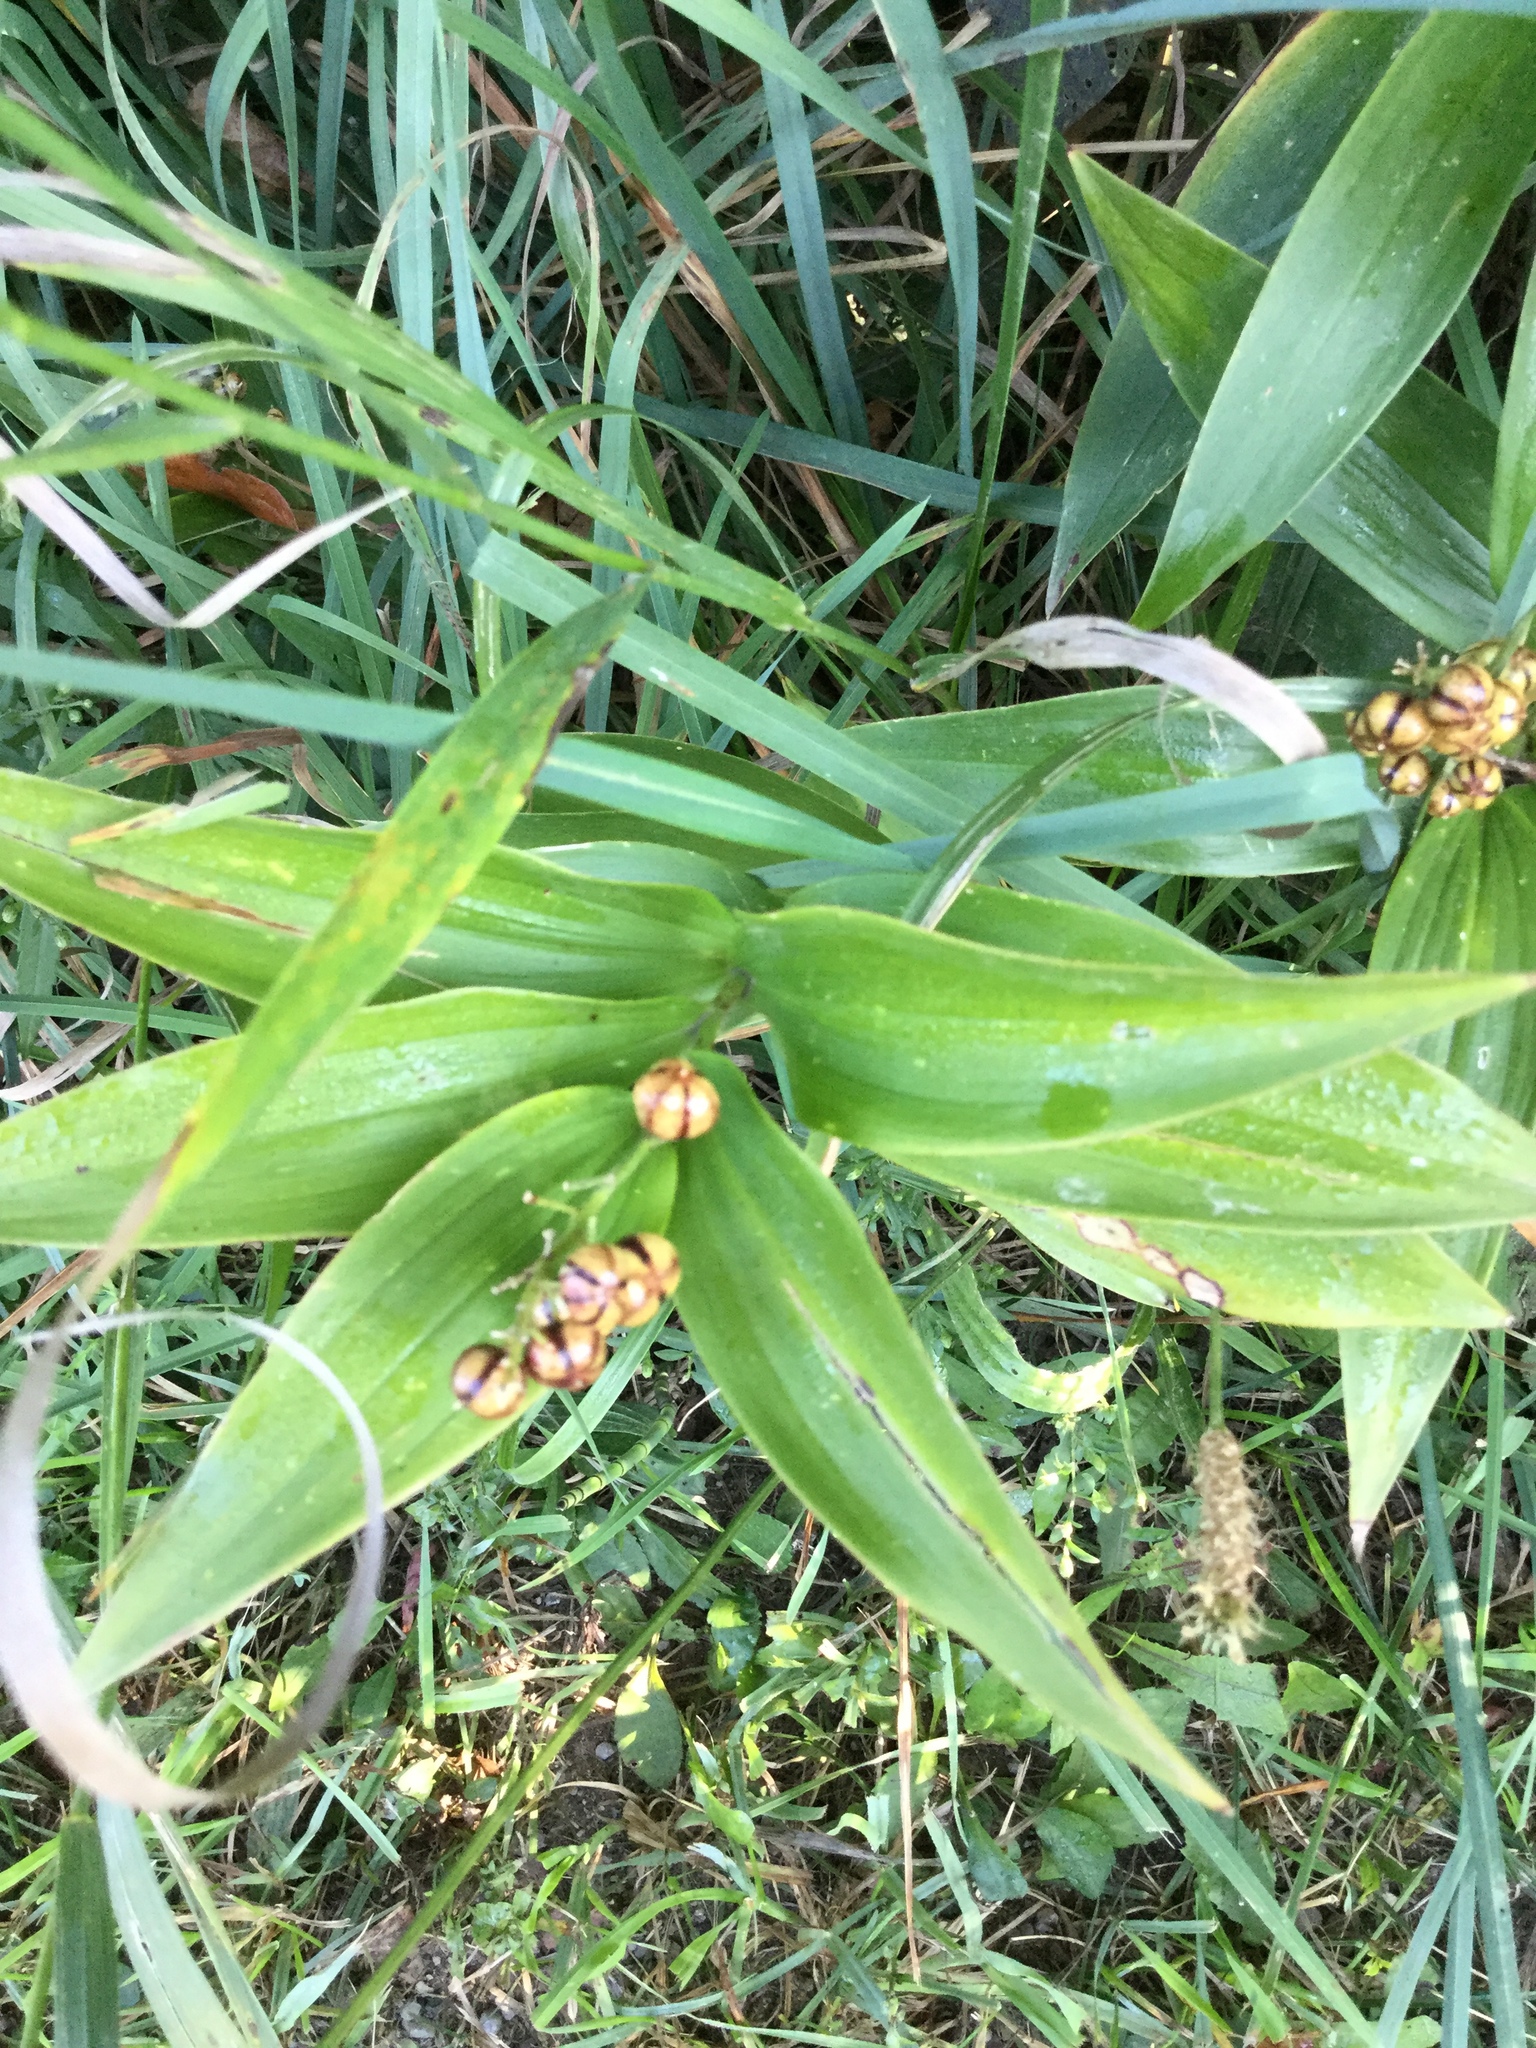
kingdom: Plantae
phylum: Tracheophyta
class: Liliopsida
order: Asparagales
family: Asparagaceae
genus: Maianthemum
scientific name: Maianthemum stellatum
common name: Little false solomon's seal
